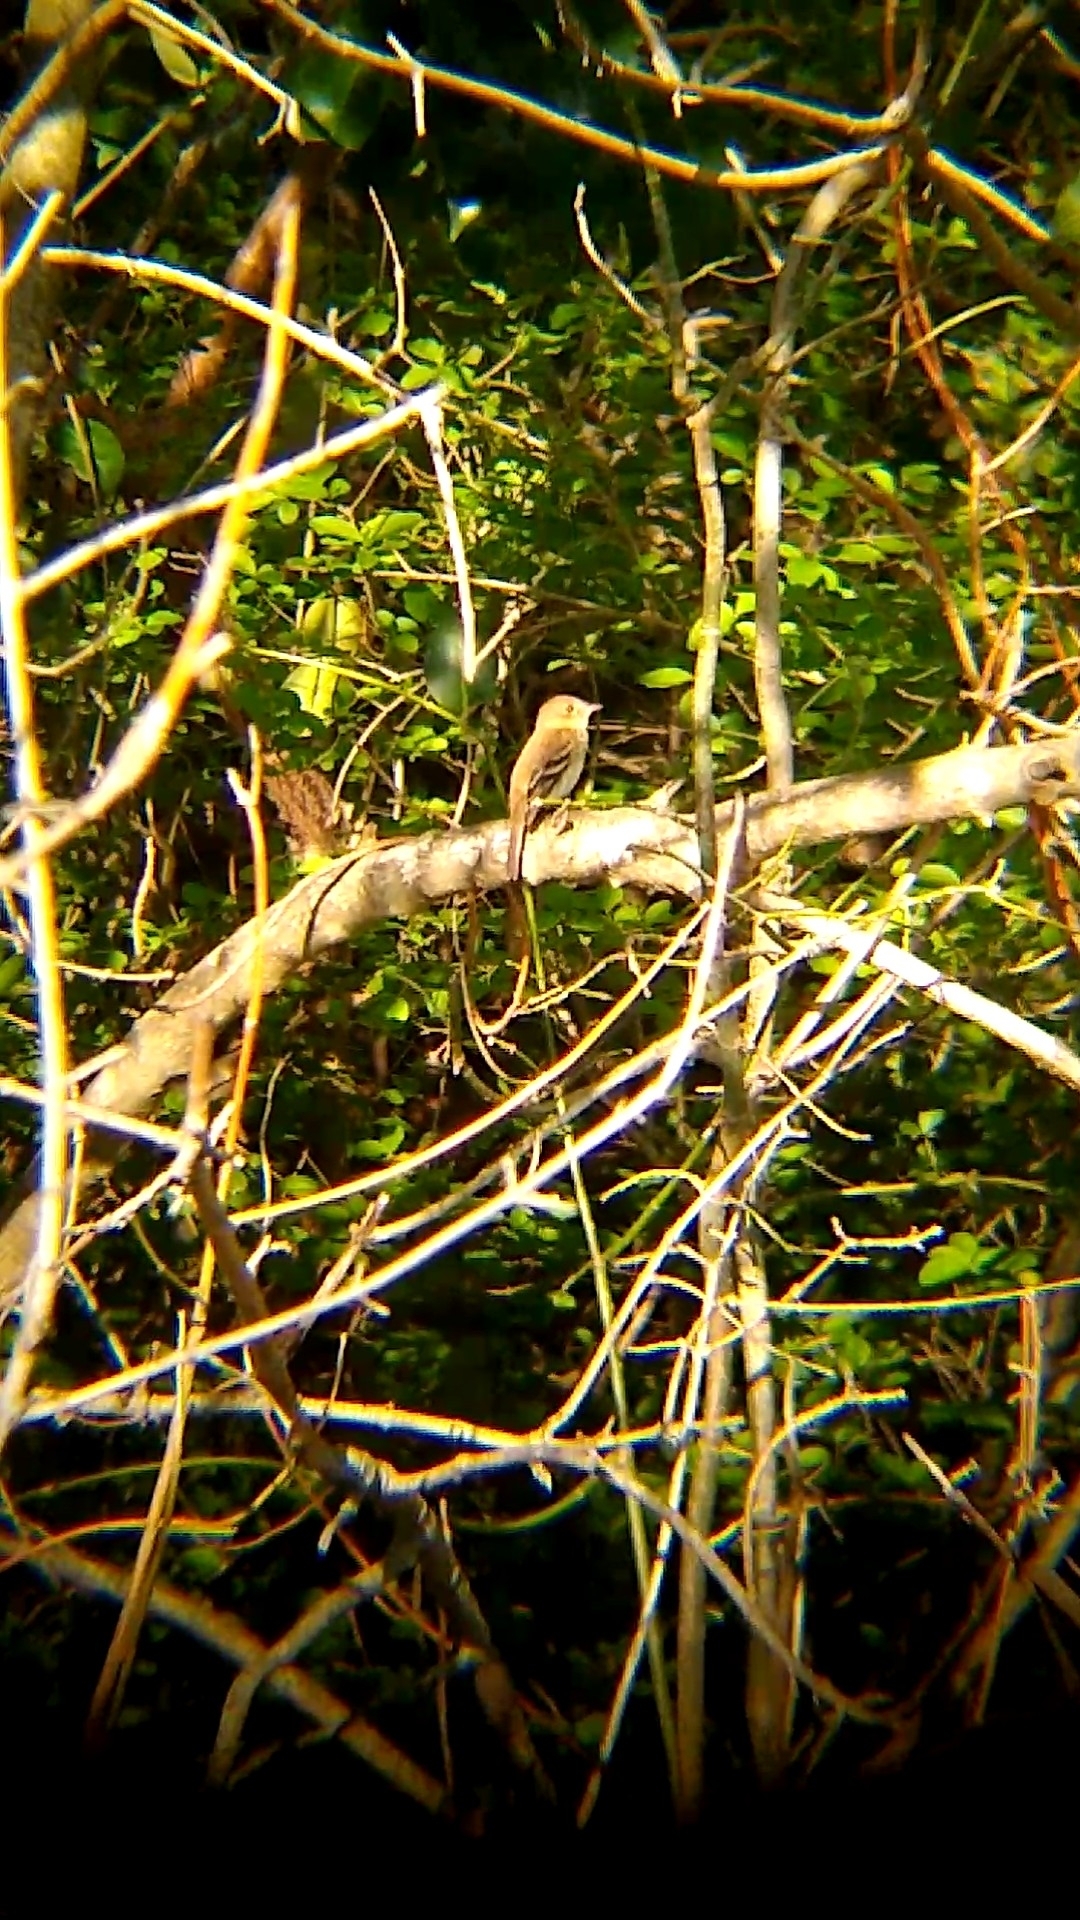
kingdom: Animalia
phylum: Chordata
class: Aves
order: Passeriformes
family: Tyrannidae
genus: Myiophobus
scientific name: Myiophobus fasciatus
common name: Bran-colored flycatcher
